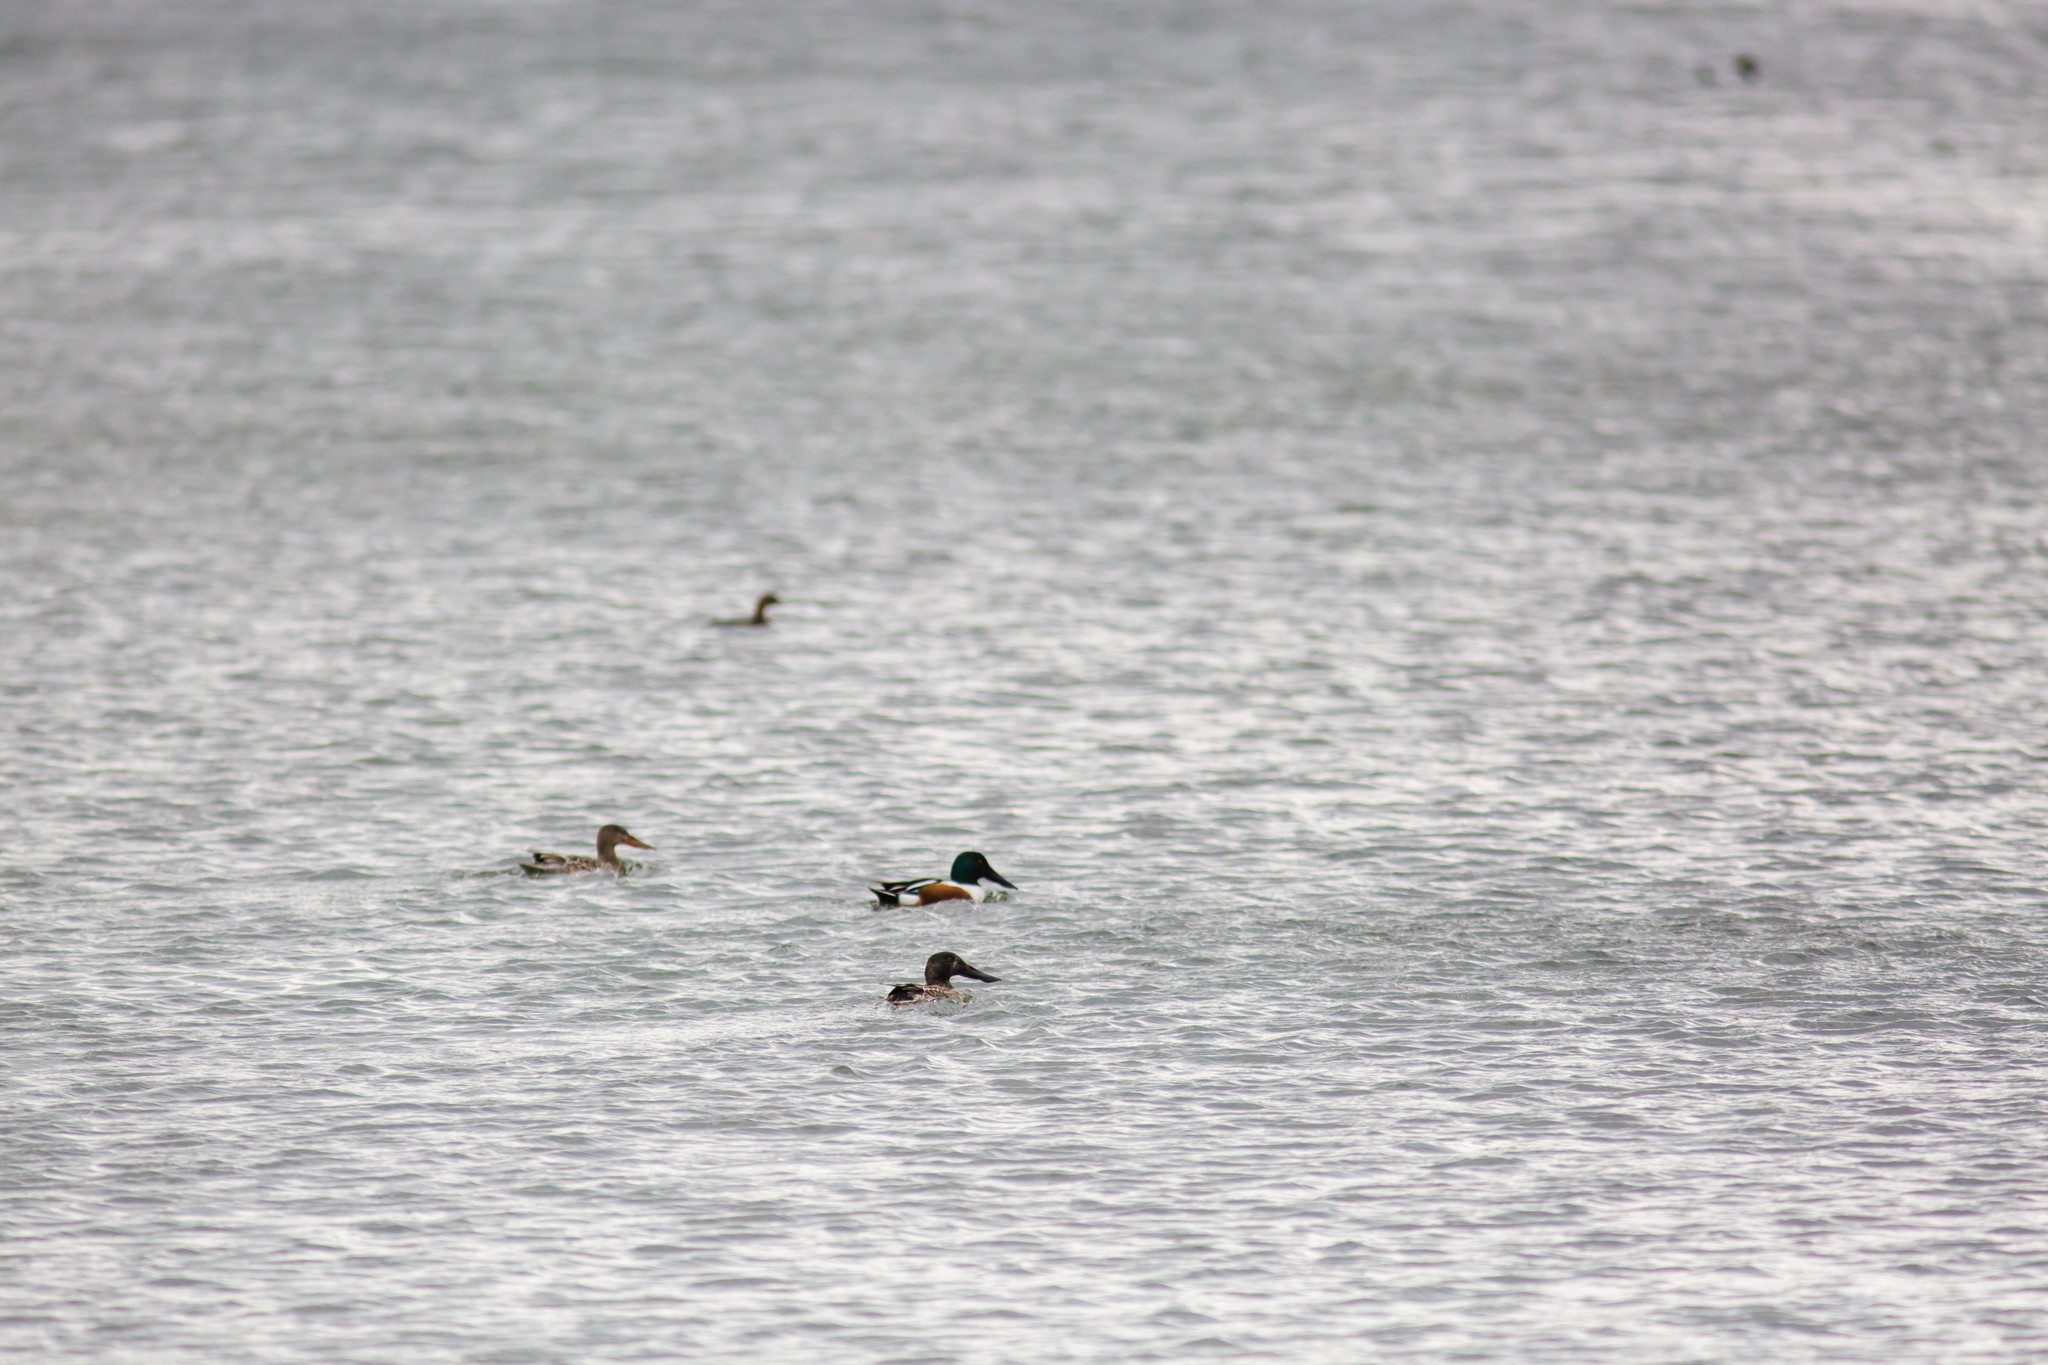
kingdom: Animalia
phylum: Chordata
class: Aves
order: Anseriformes
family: Anatidae
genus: Spatula
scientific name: Spatula clypeata
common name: Northern shoveler
